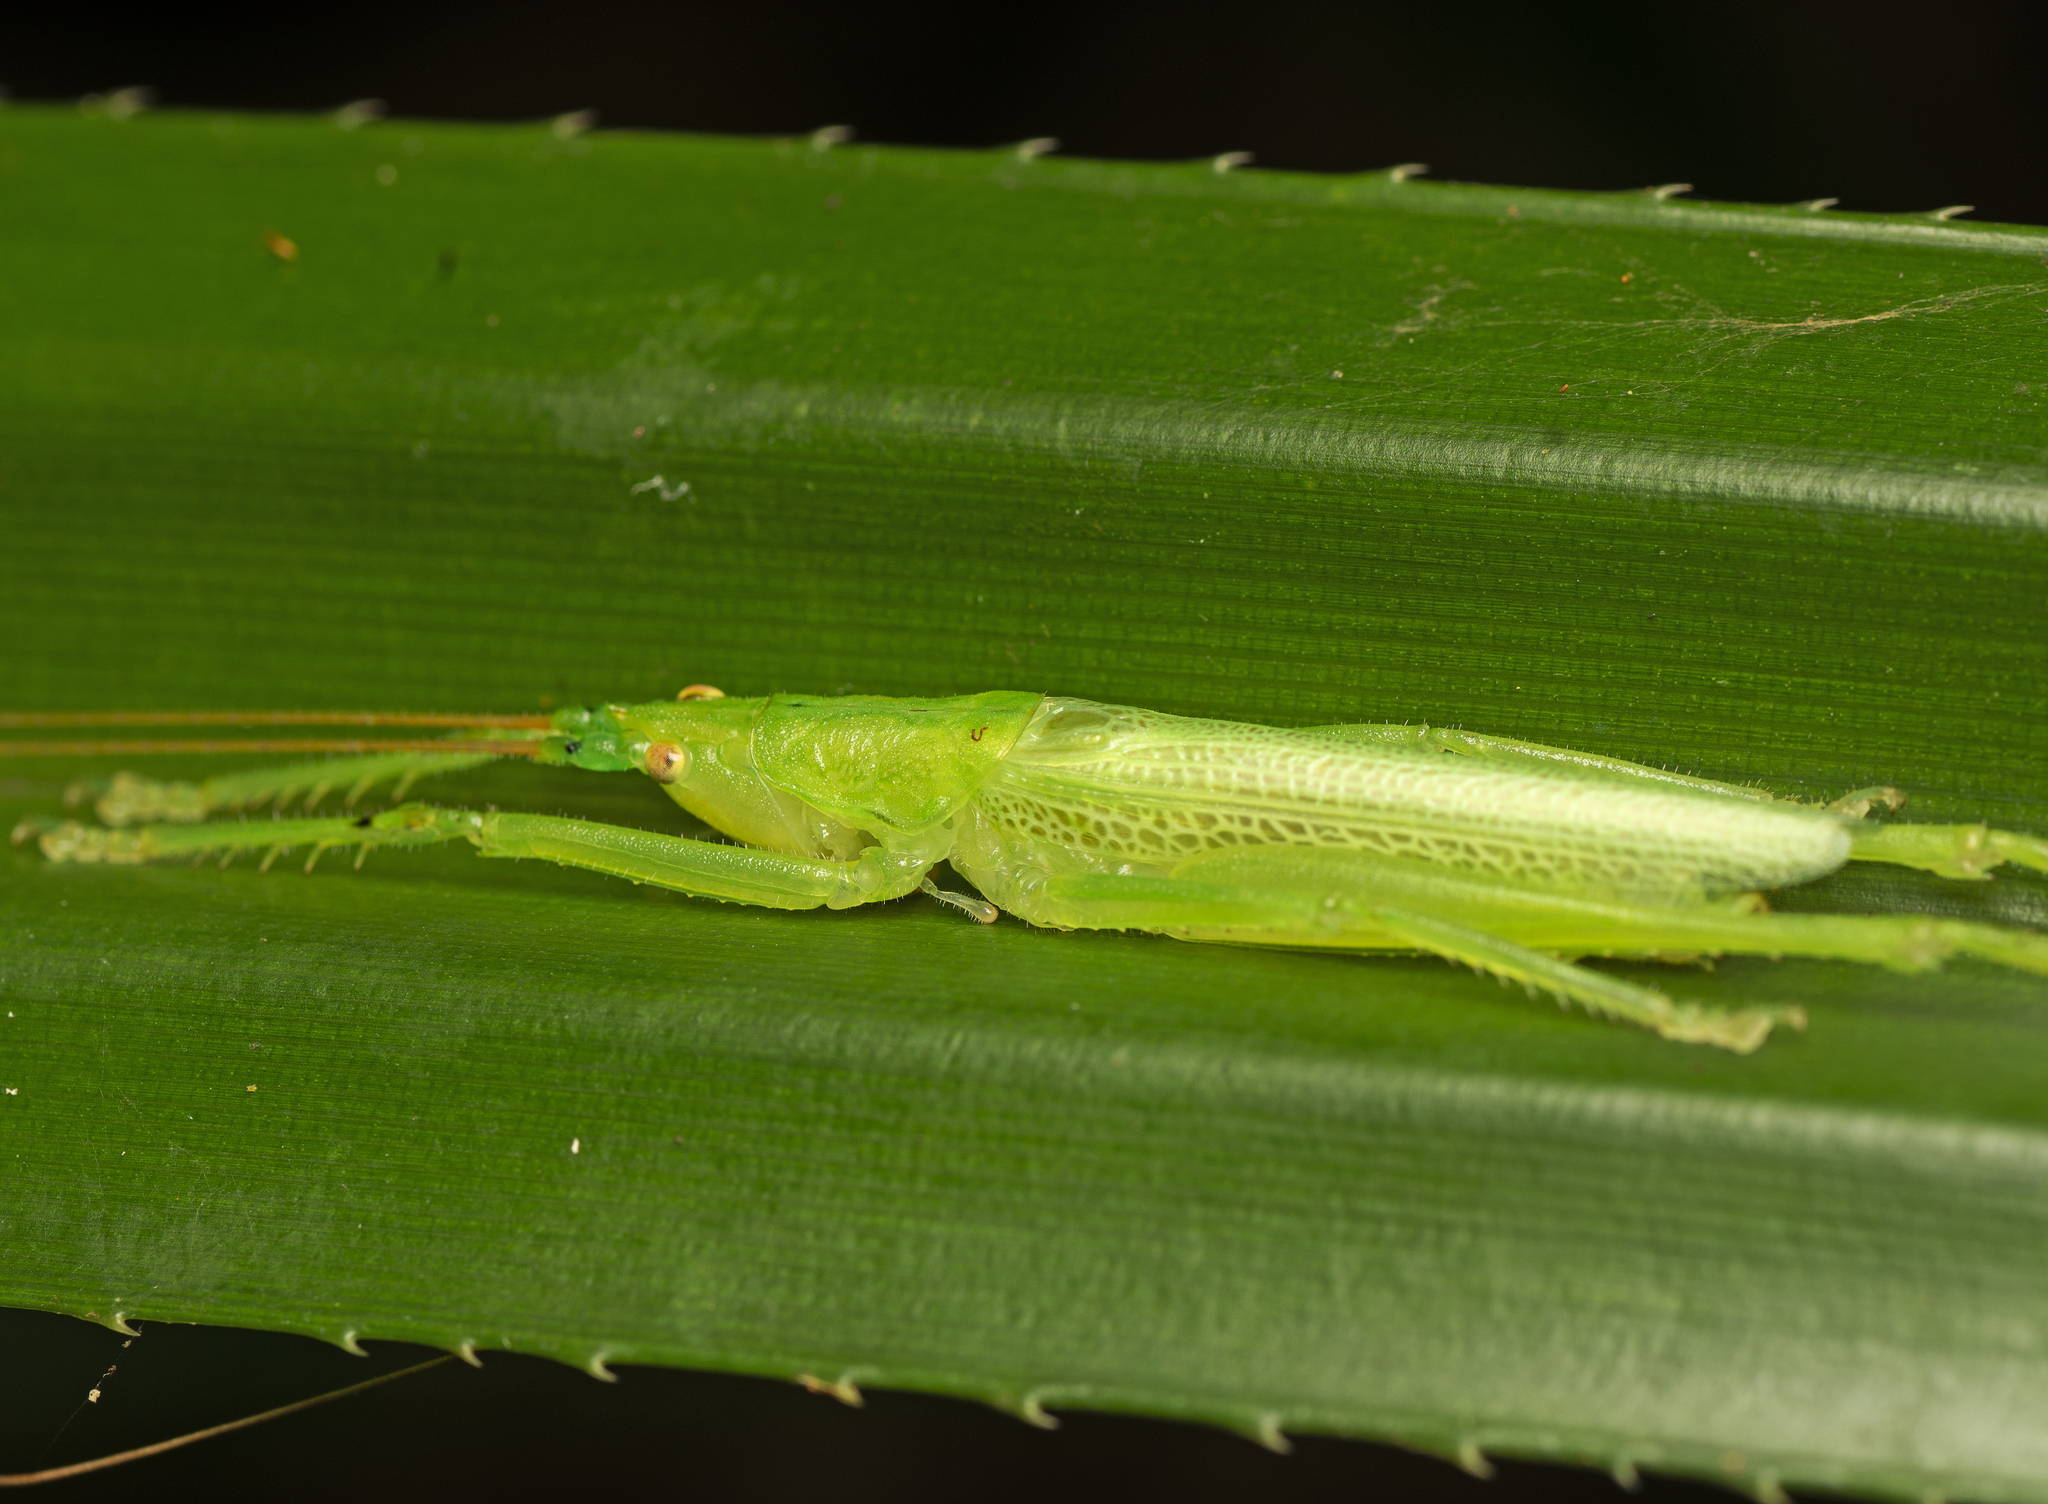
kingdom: Animalia
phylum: Arthropoda
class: Insecta
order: Orthoptera
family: Tettigoniidae
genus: Greenagraecia
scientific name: Greenagraecia attenuata
